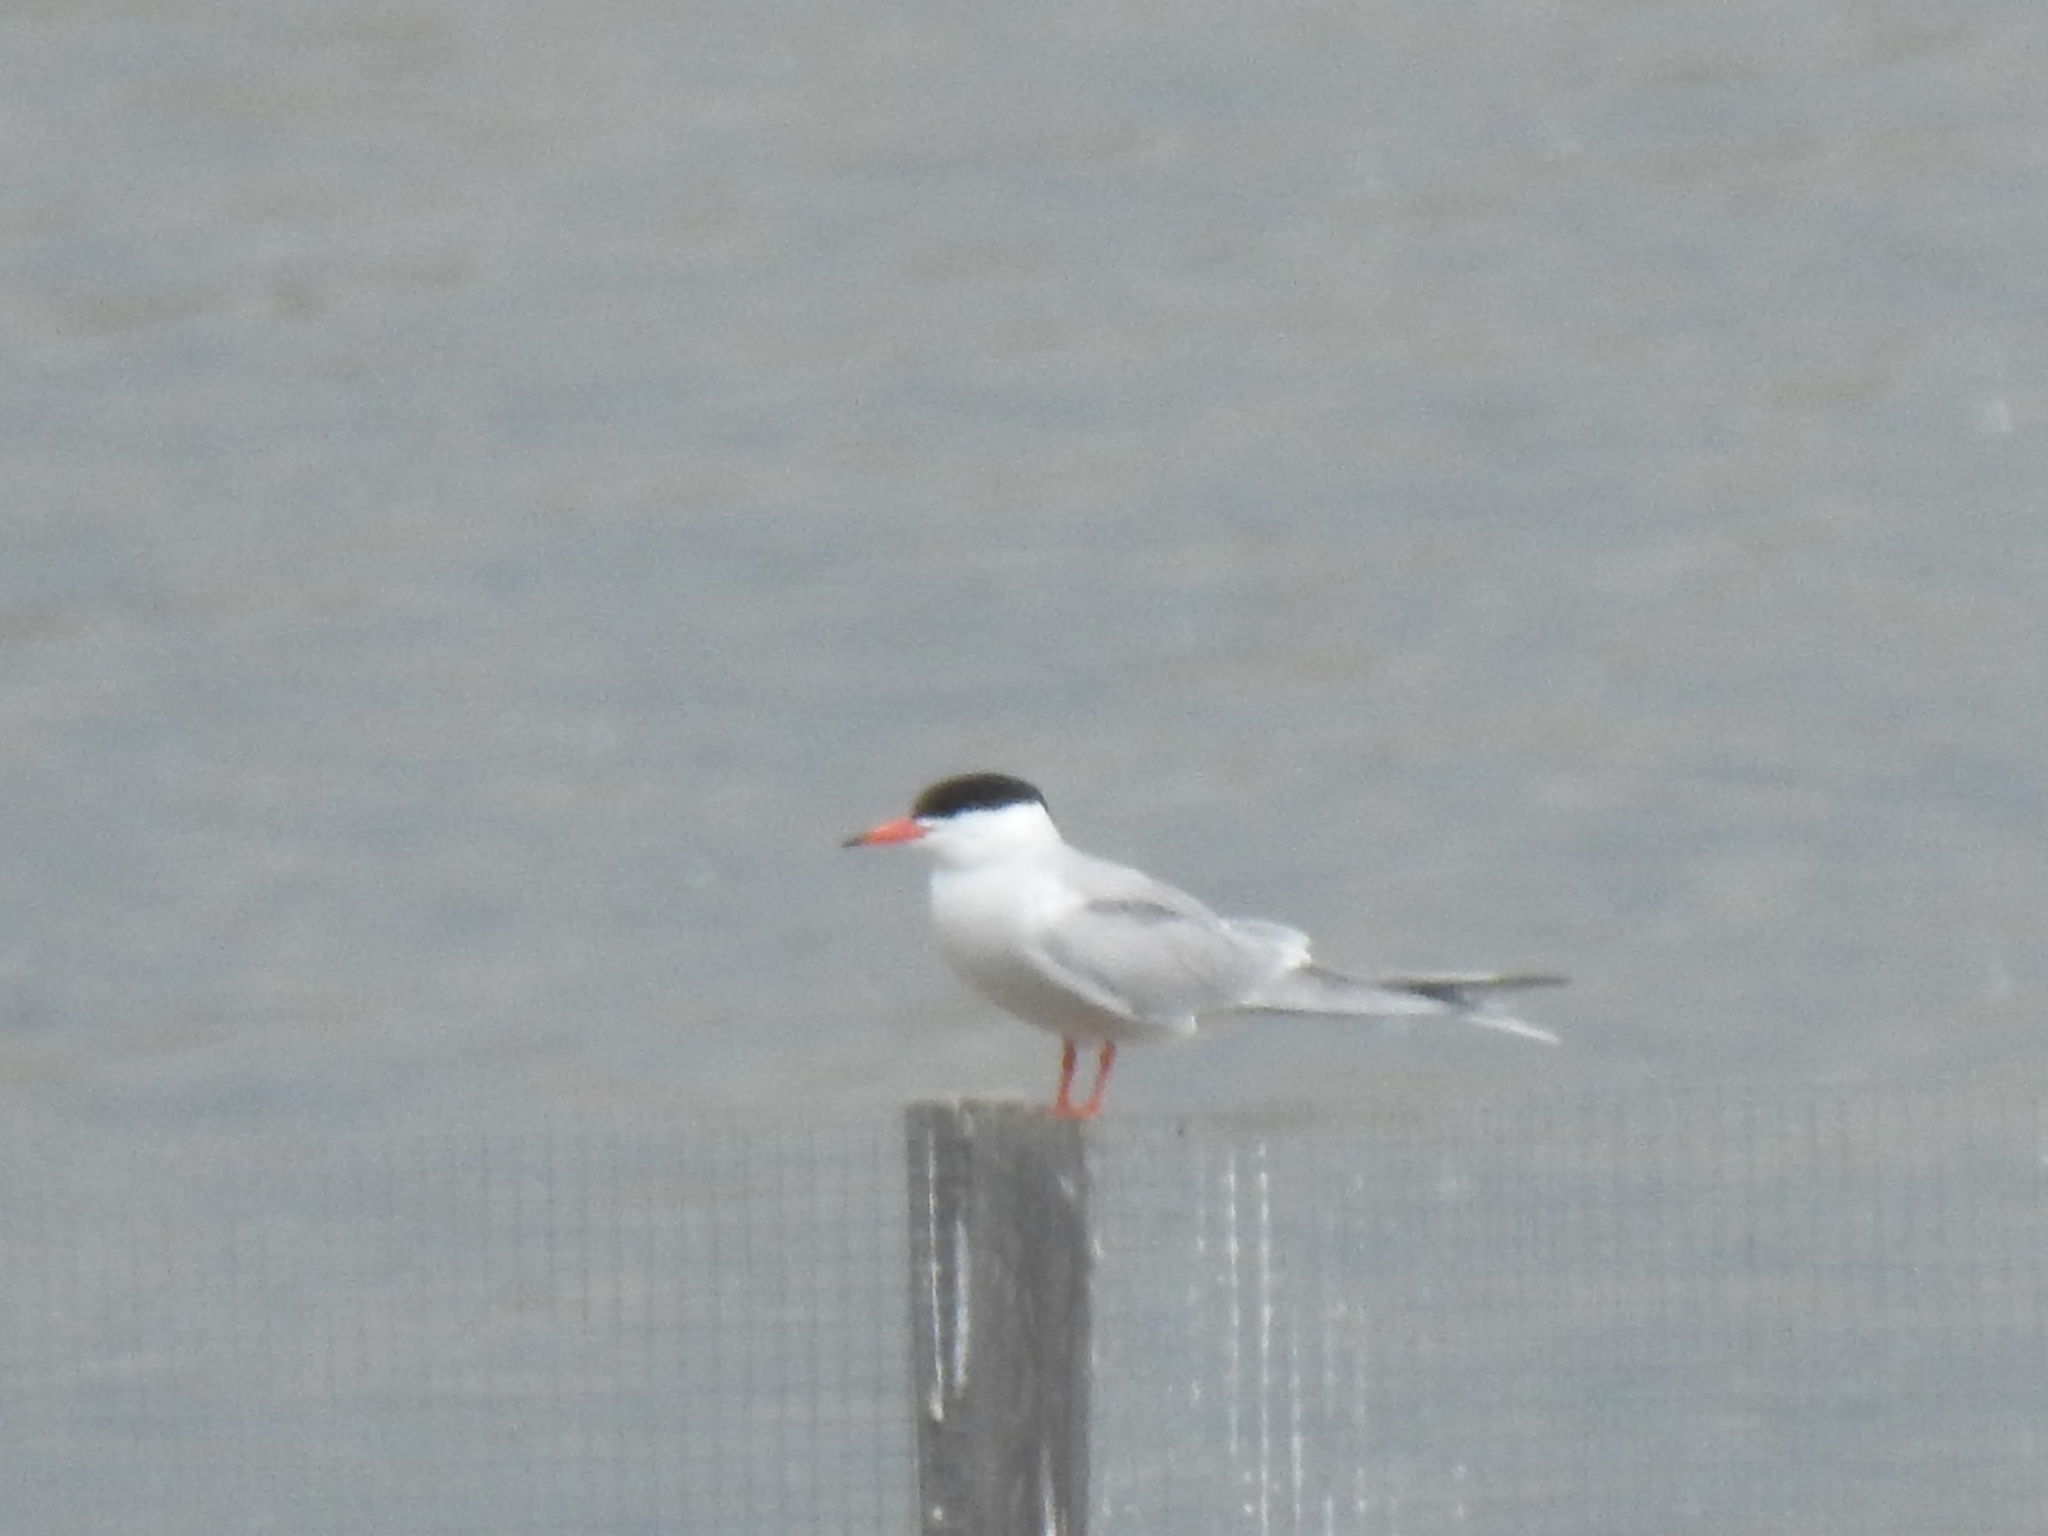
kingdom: Animalia
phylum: Chordata
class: Aves
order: Charadriiformes
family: Laridae
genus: Sterna
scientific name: Sterna hirundo
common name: Common tern
